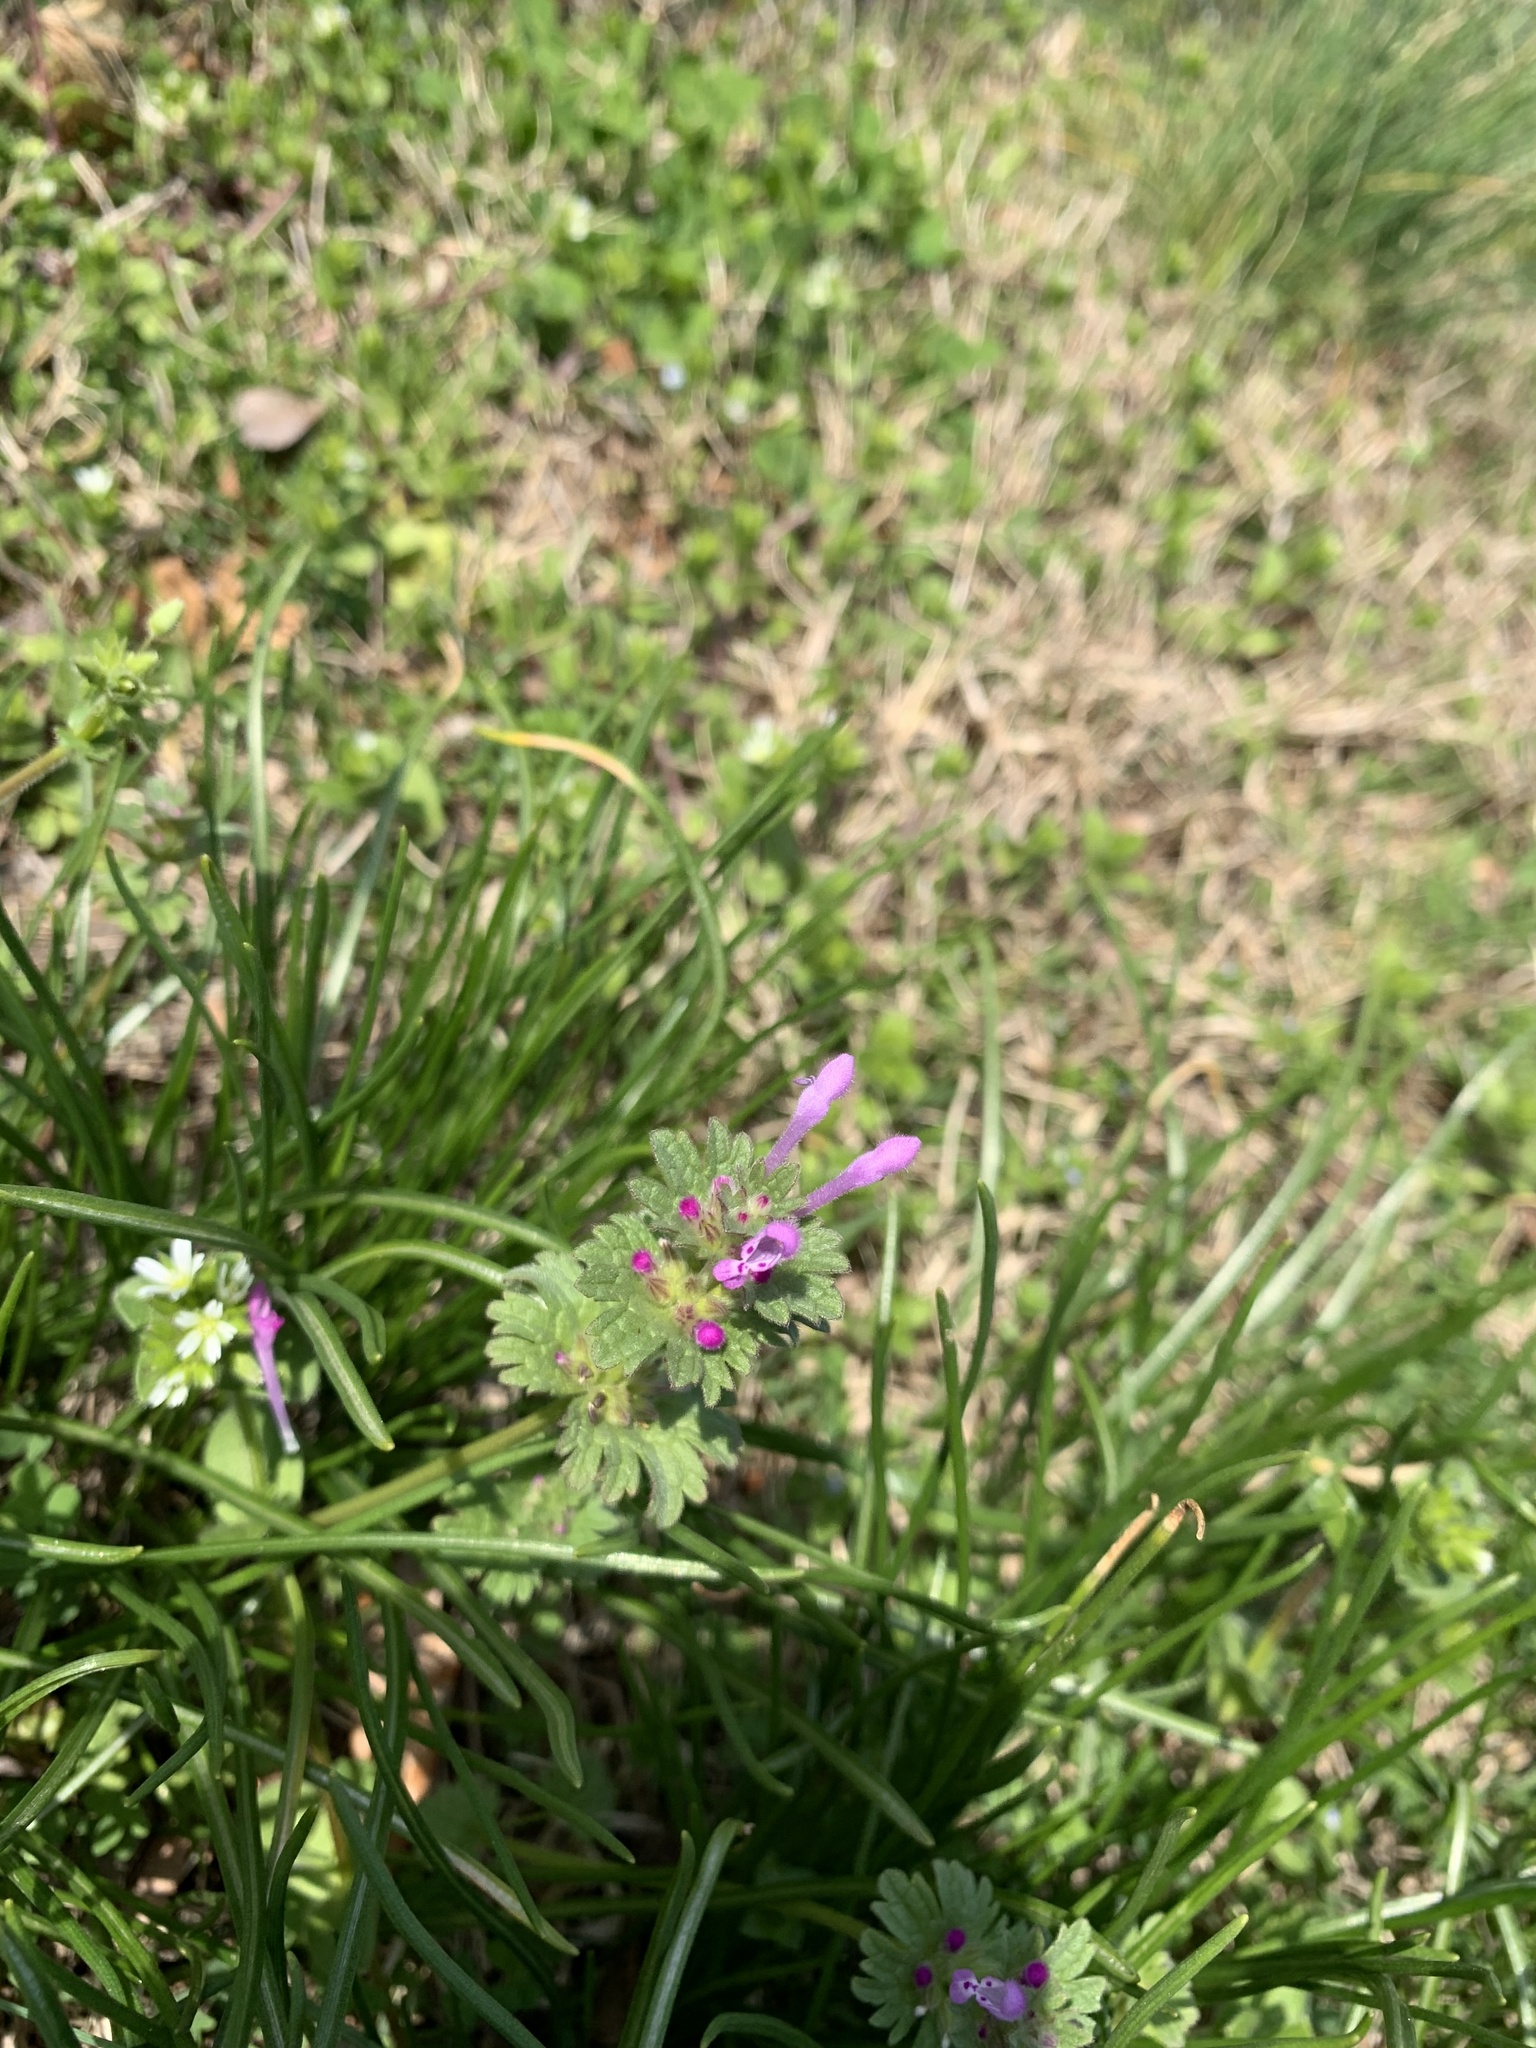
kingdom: Plantae
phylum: Tracheophyta
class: Magnoliopsida
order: Lamiales
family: Lamiaceae
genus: Lamium
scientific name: Lamium amplexicaule
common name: Henbit dead-nettle
